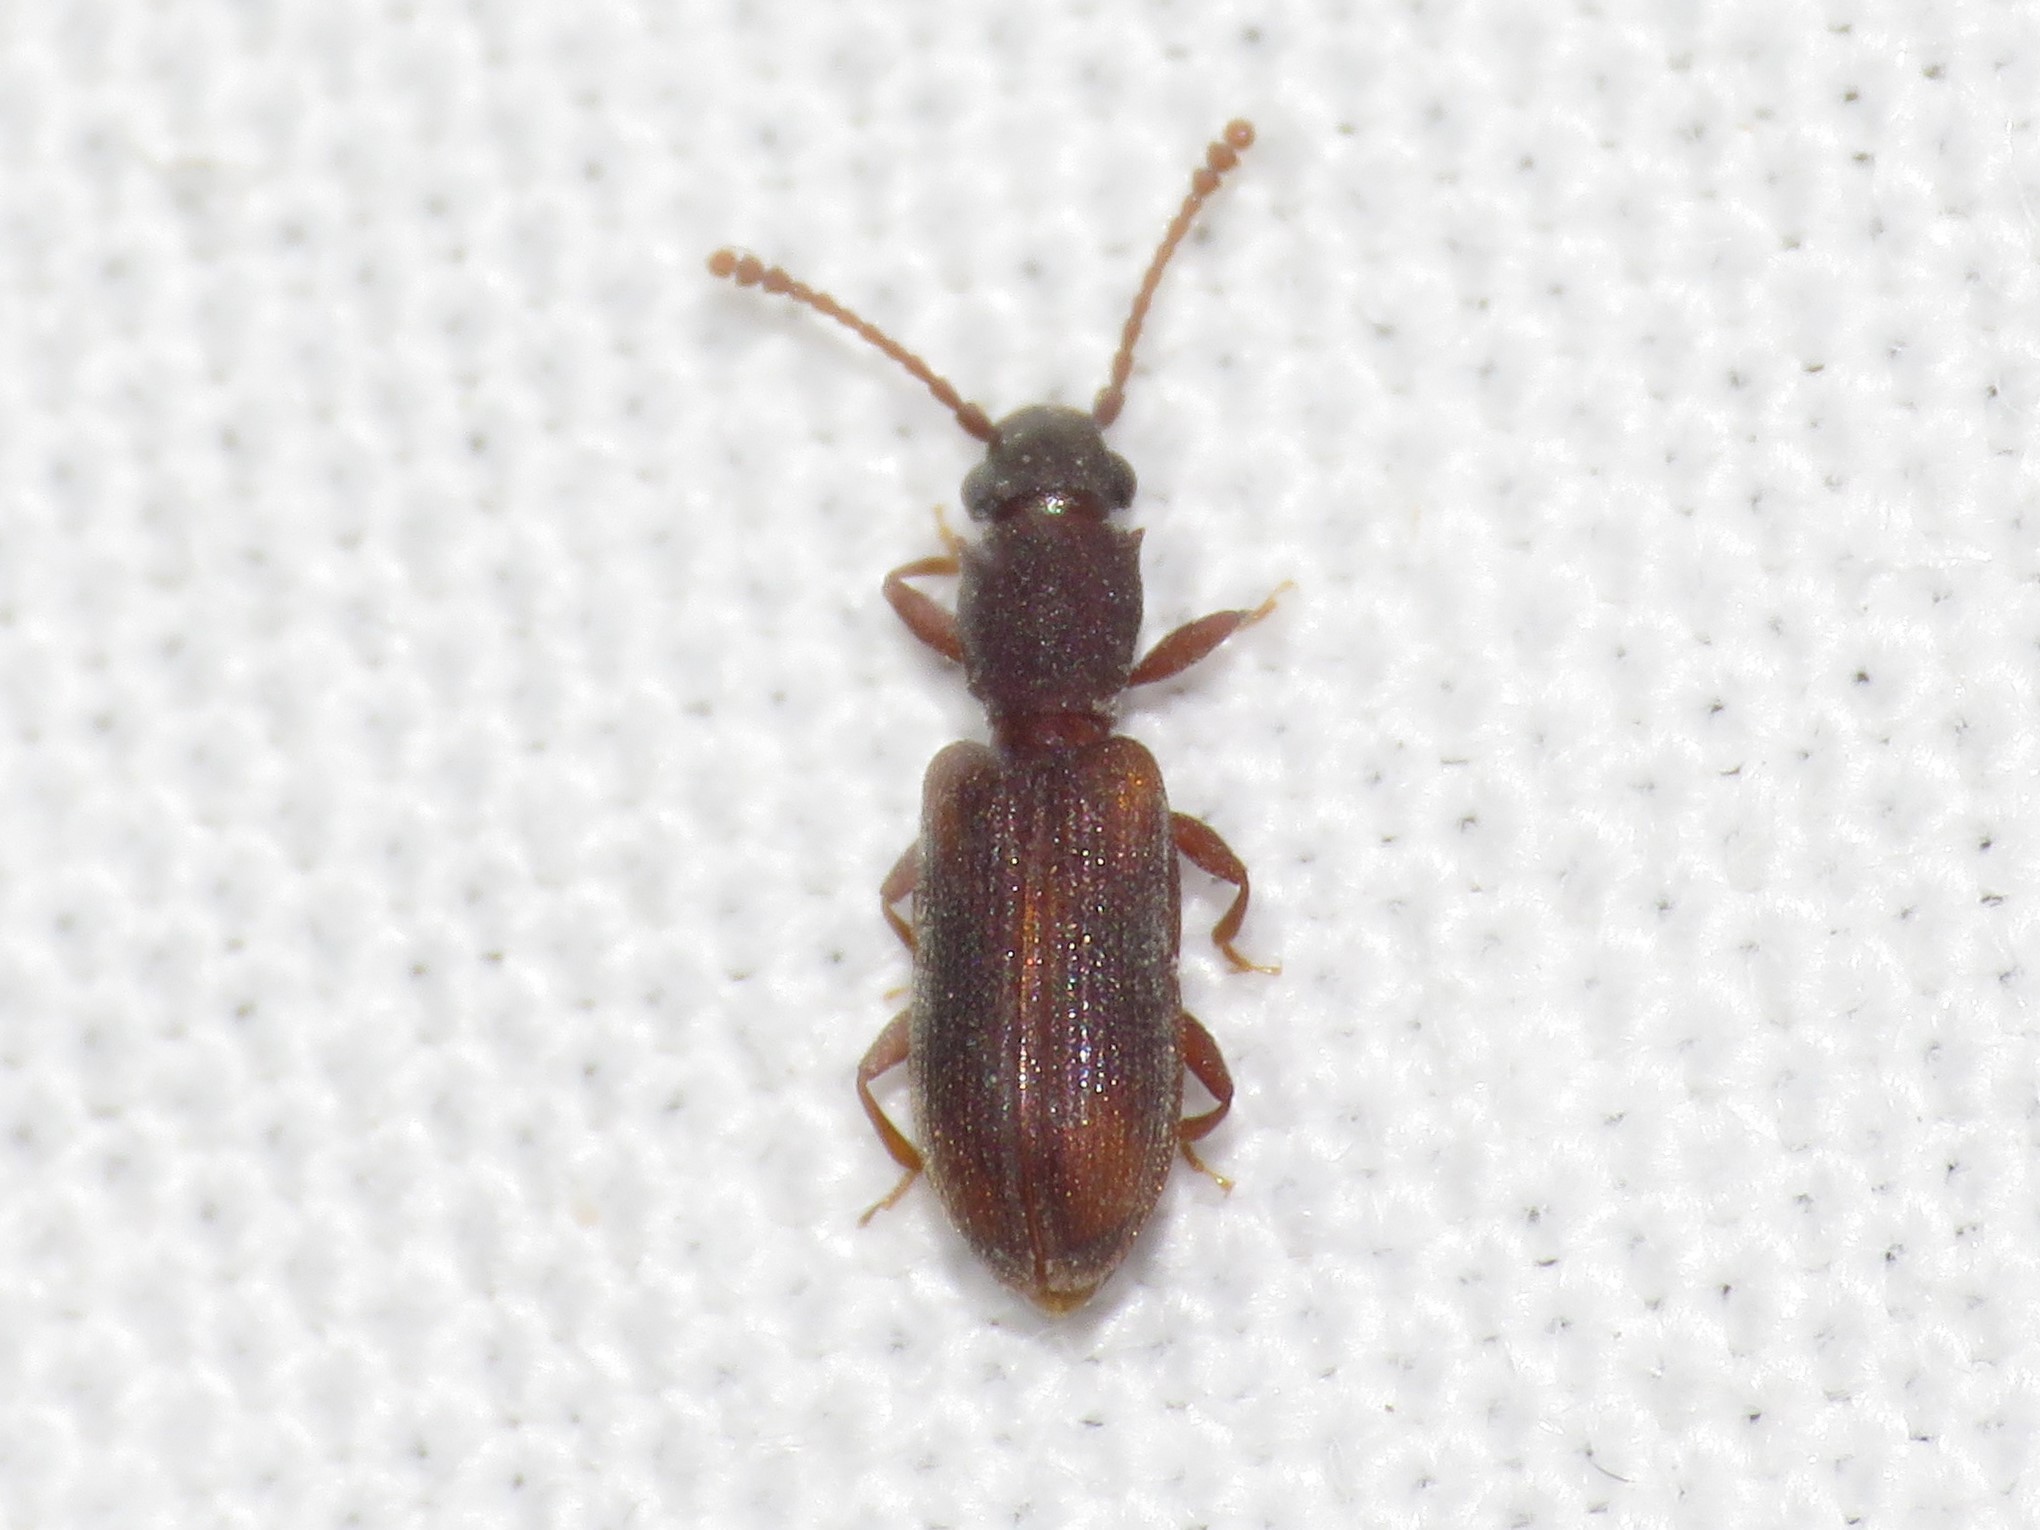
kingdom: Animalia
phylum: Arthropoda
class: Insecta
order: Coleoptera
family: Silvanidae
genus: Silvanoprus
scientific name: Silvanoprus angusticollis
